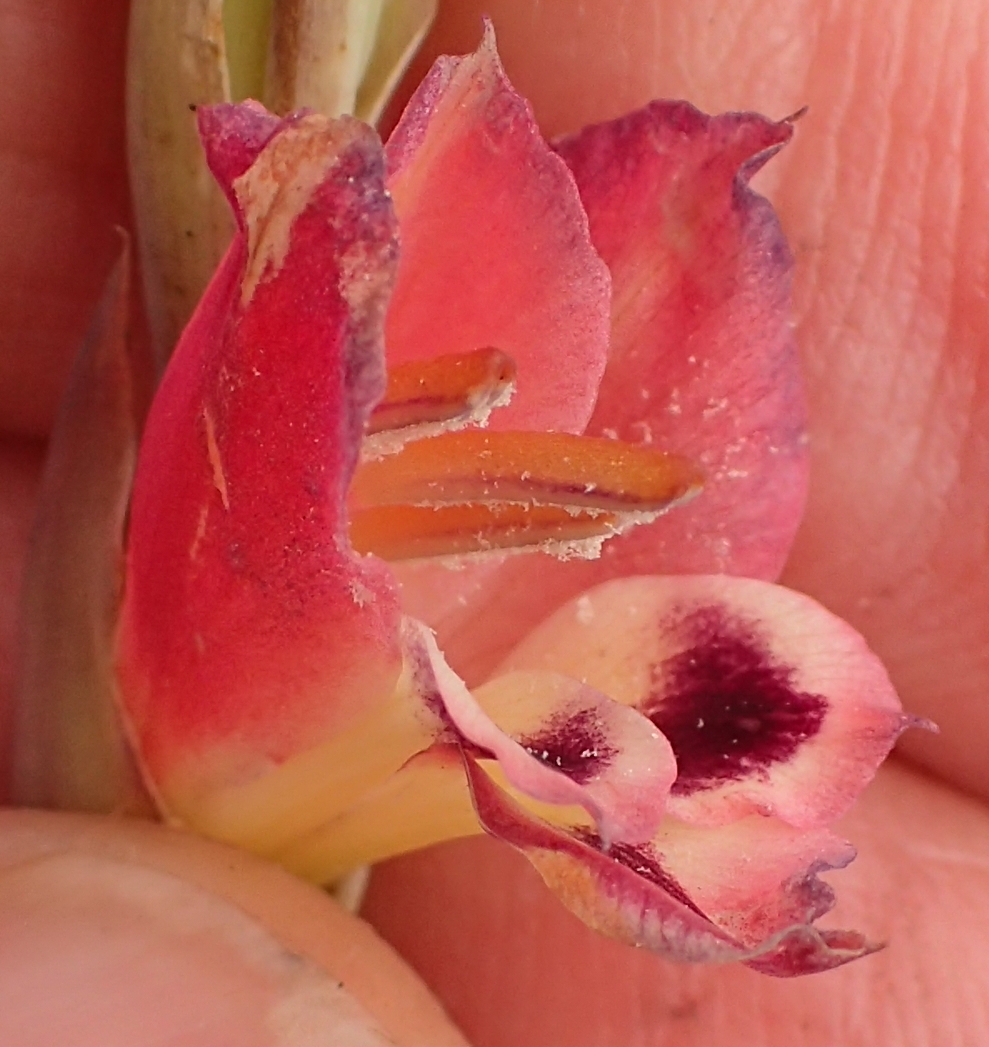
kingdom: Plantae
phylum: Tracheophyta
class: Liliopsida
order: Asparagales
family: Iridaceae
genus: Gladiolus
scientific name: Gladiolus crassifolius
